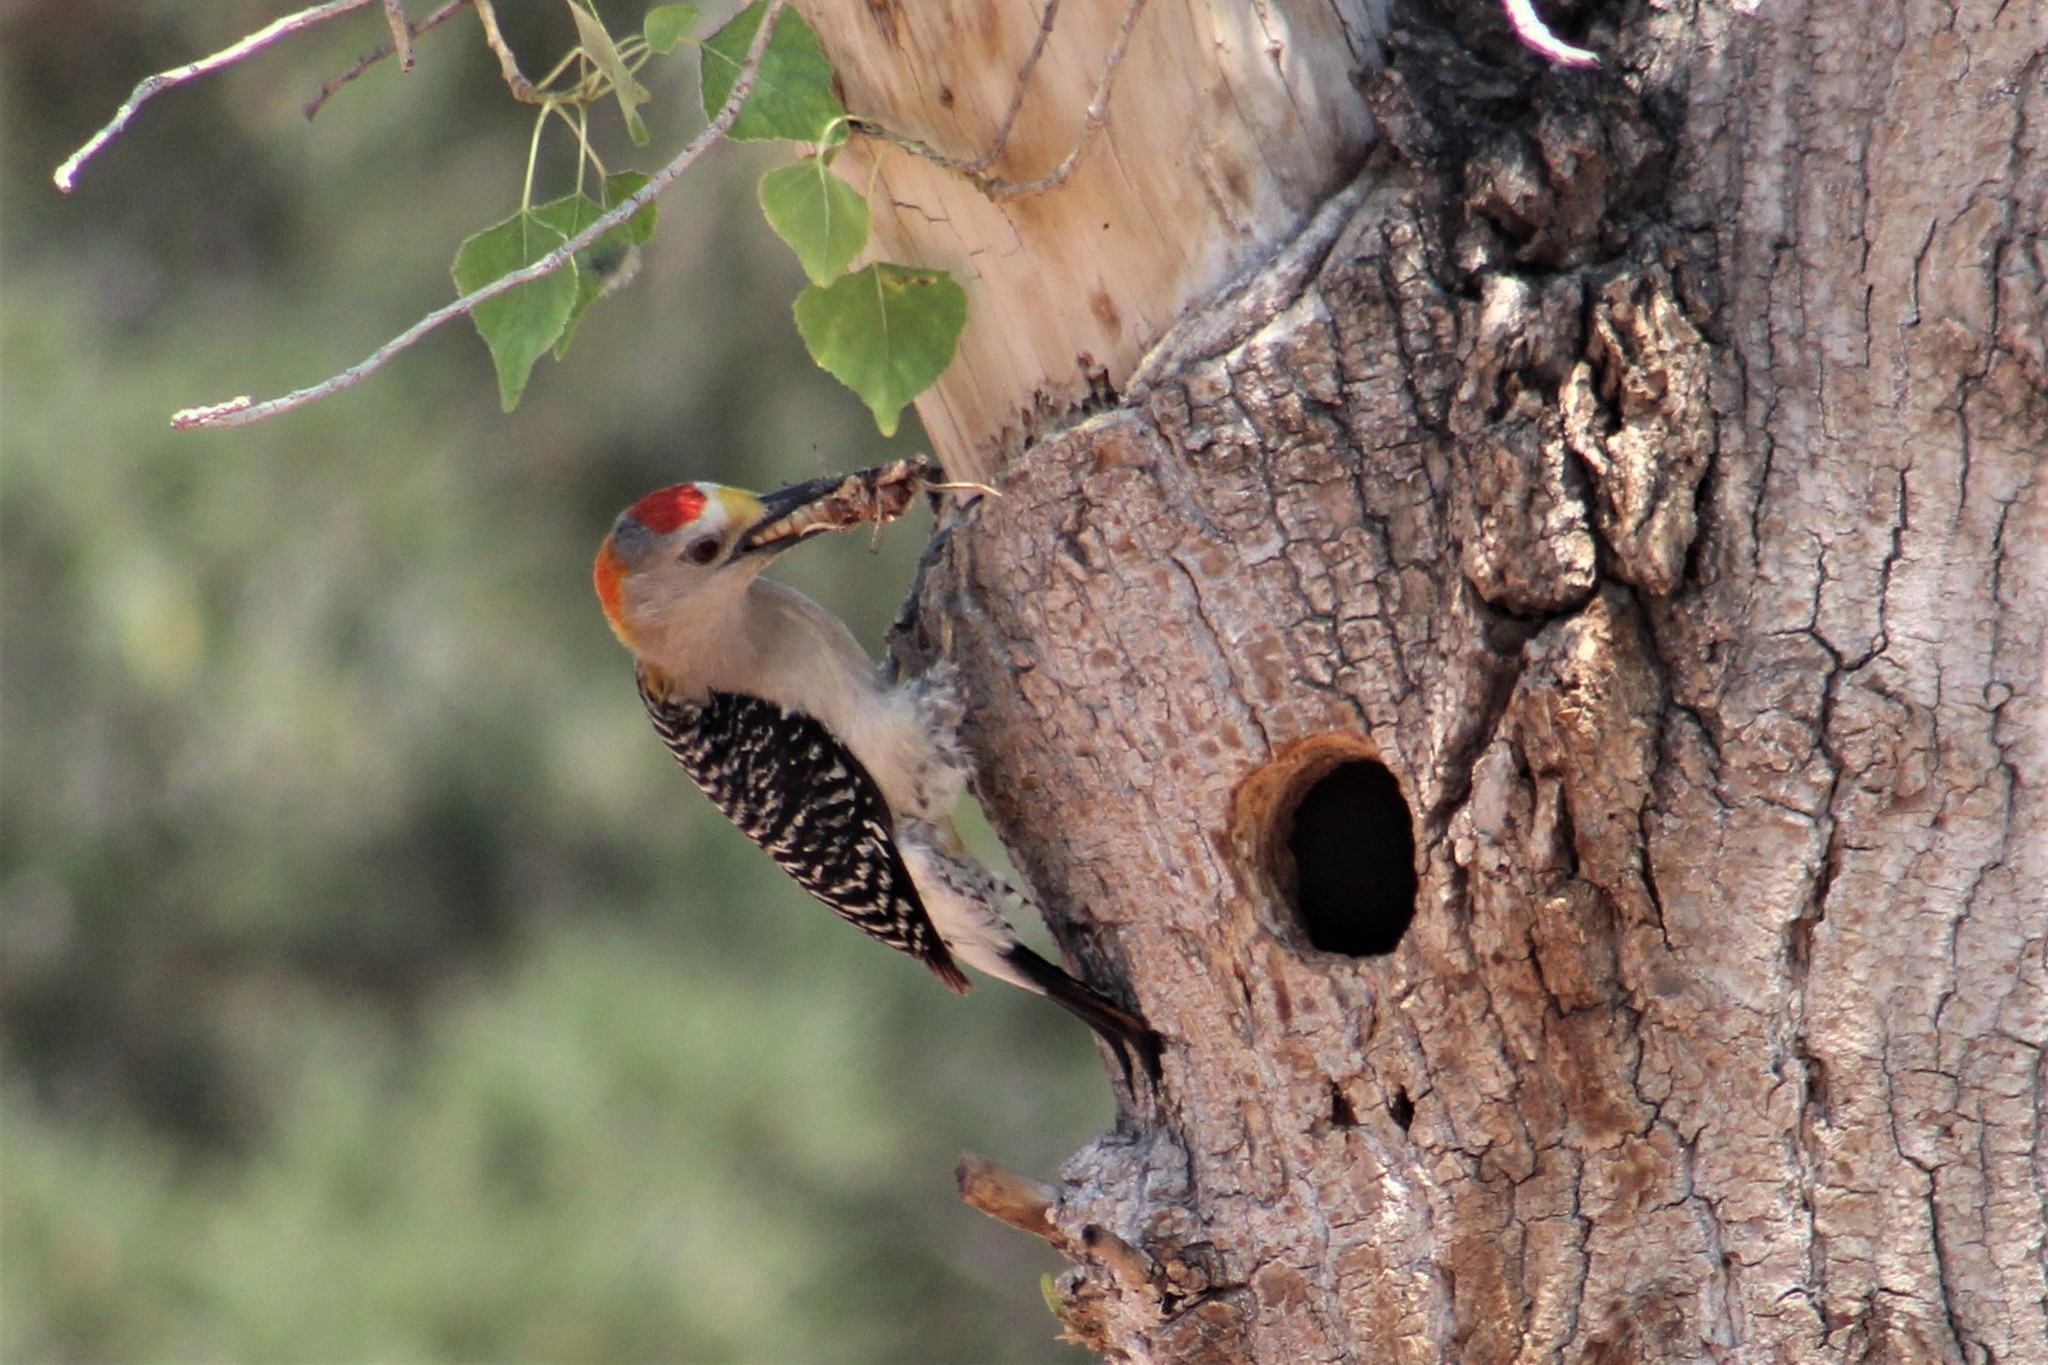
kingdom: Animalia
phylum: Chordata
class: Aves
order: Piciformes
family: Picidae
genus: Melanerpes
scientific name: Melanerpes aurifrons
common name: Golden-fronted woodpecker
